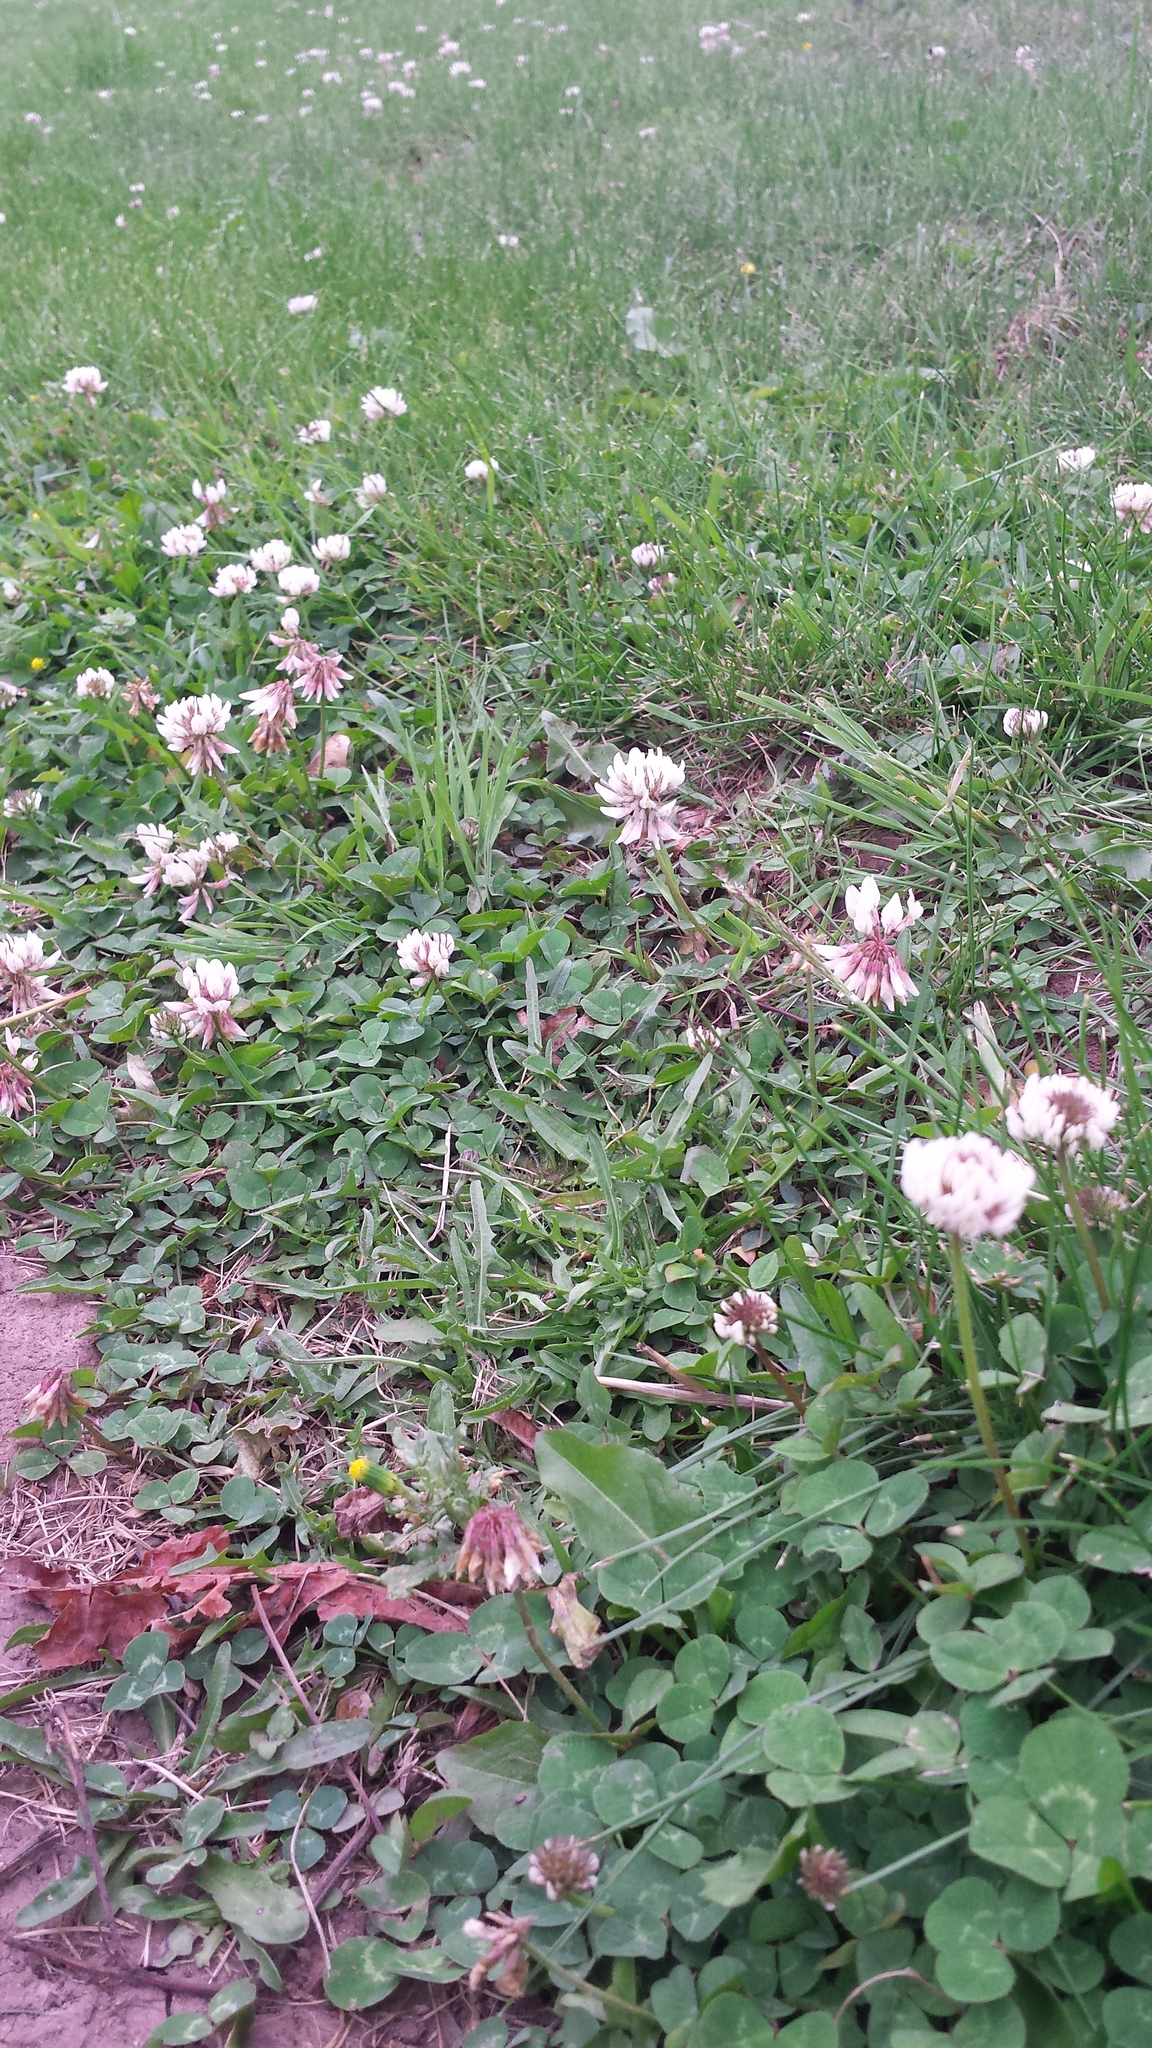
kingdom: Plantae
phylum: Tracheophyta
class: Magnoliopsida
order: Fabales
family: Fabaceae
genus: Trifolium
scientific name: Trifolium repens
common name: White clover
